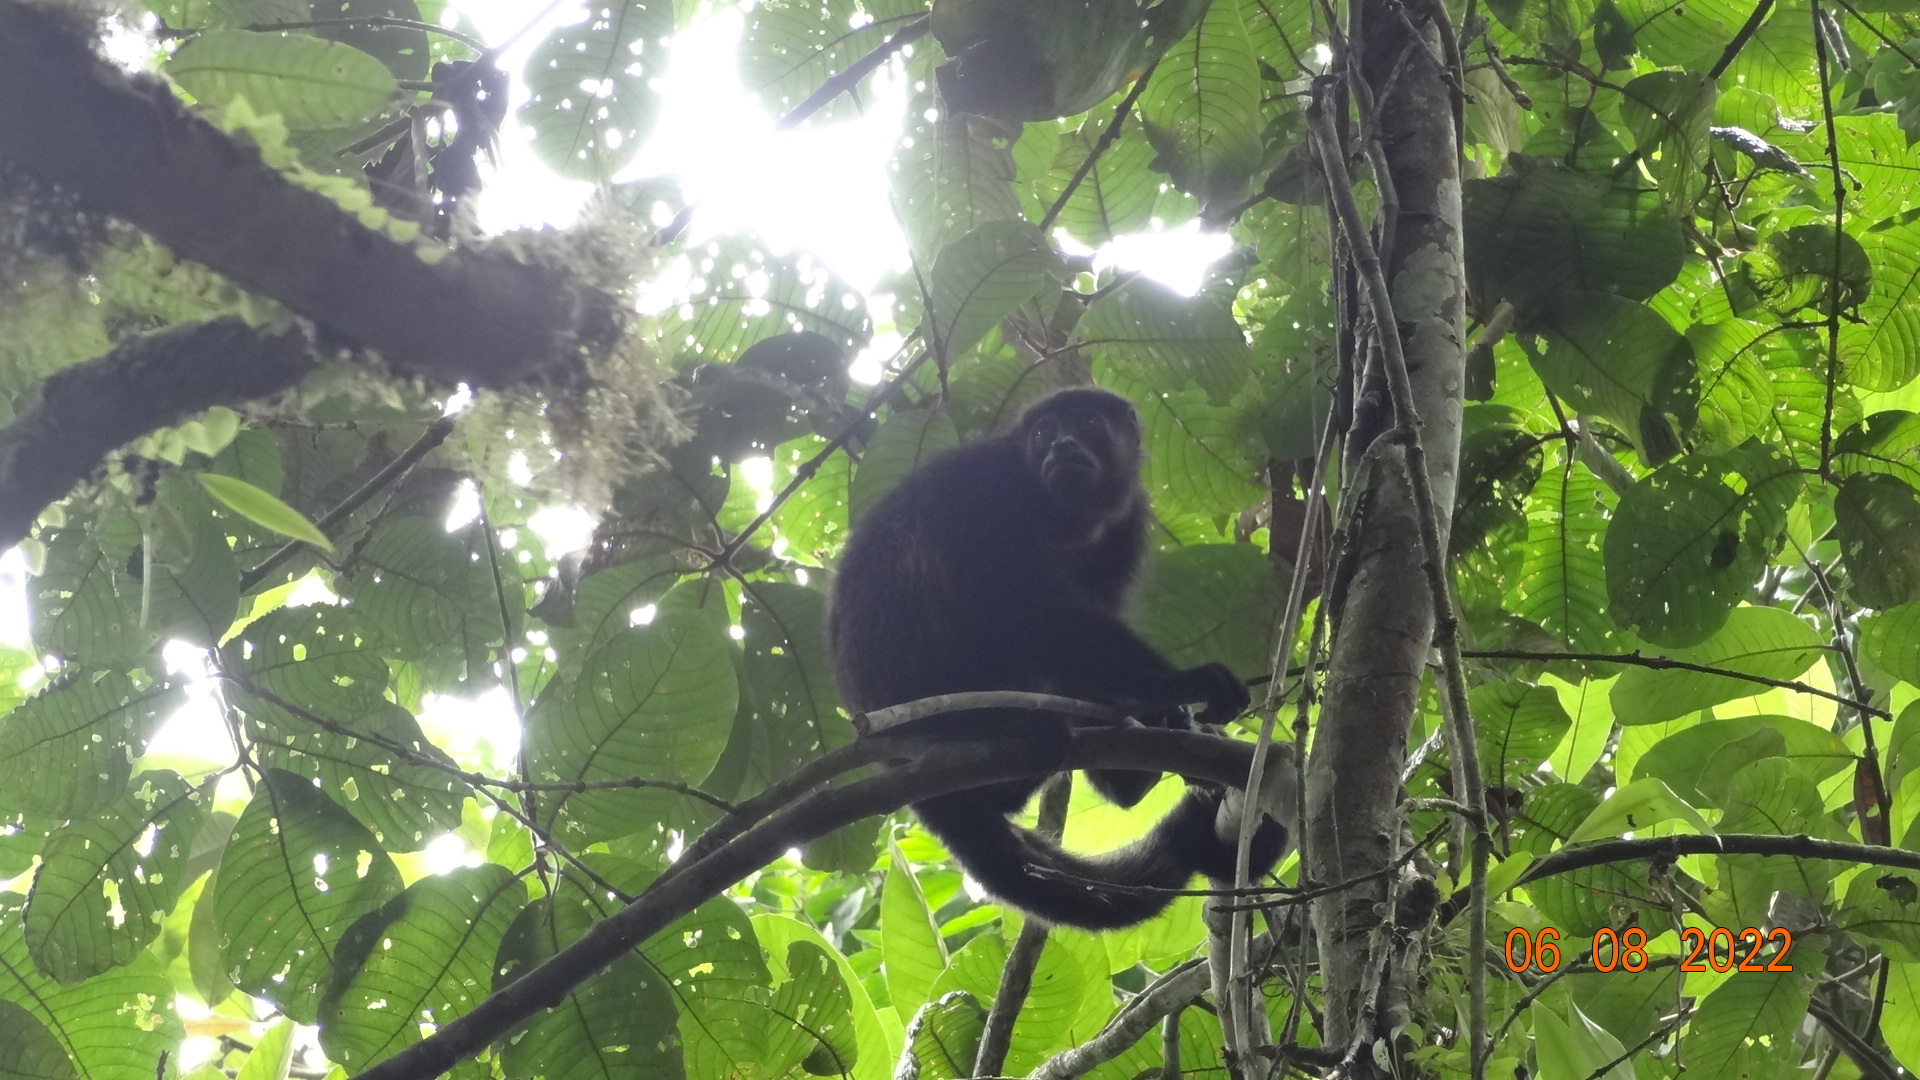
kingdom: Animalia
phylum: Chordata
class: Mammalia
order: Primates
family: Atelidae
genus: Alouatta
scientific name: Alouatta palliata
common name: Mantled howler
